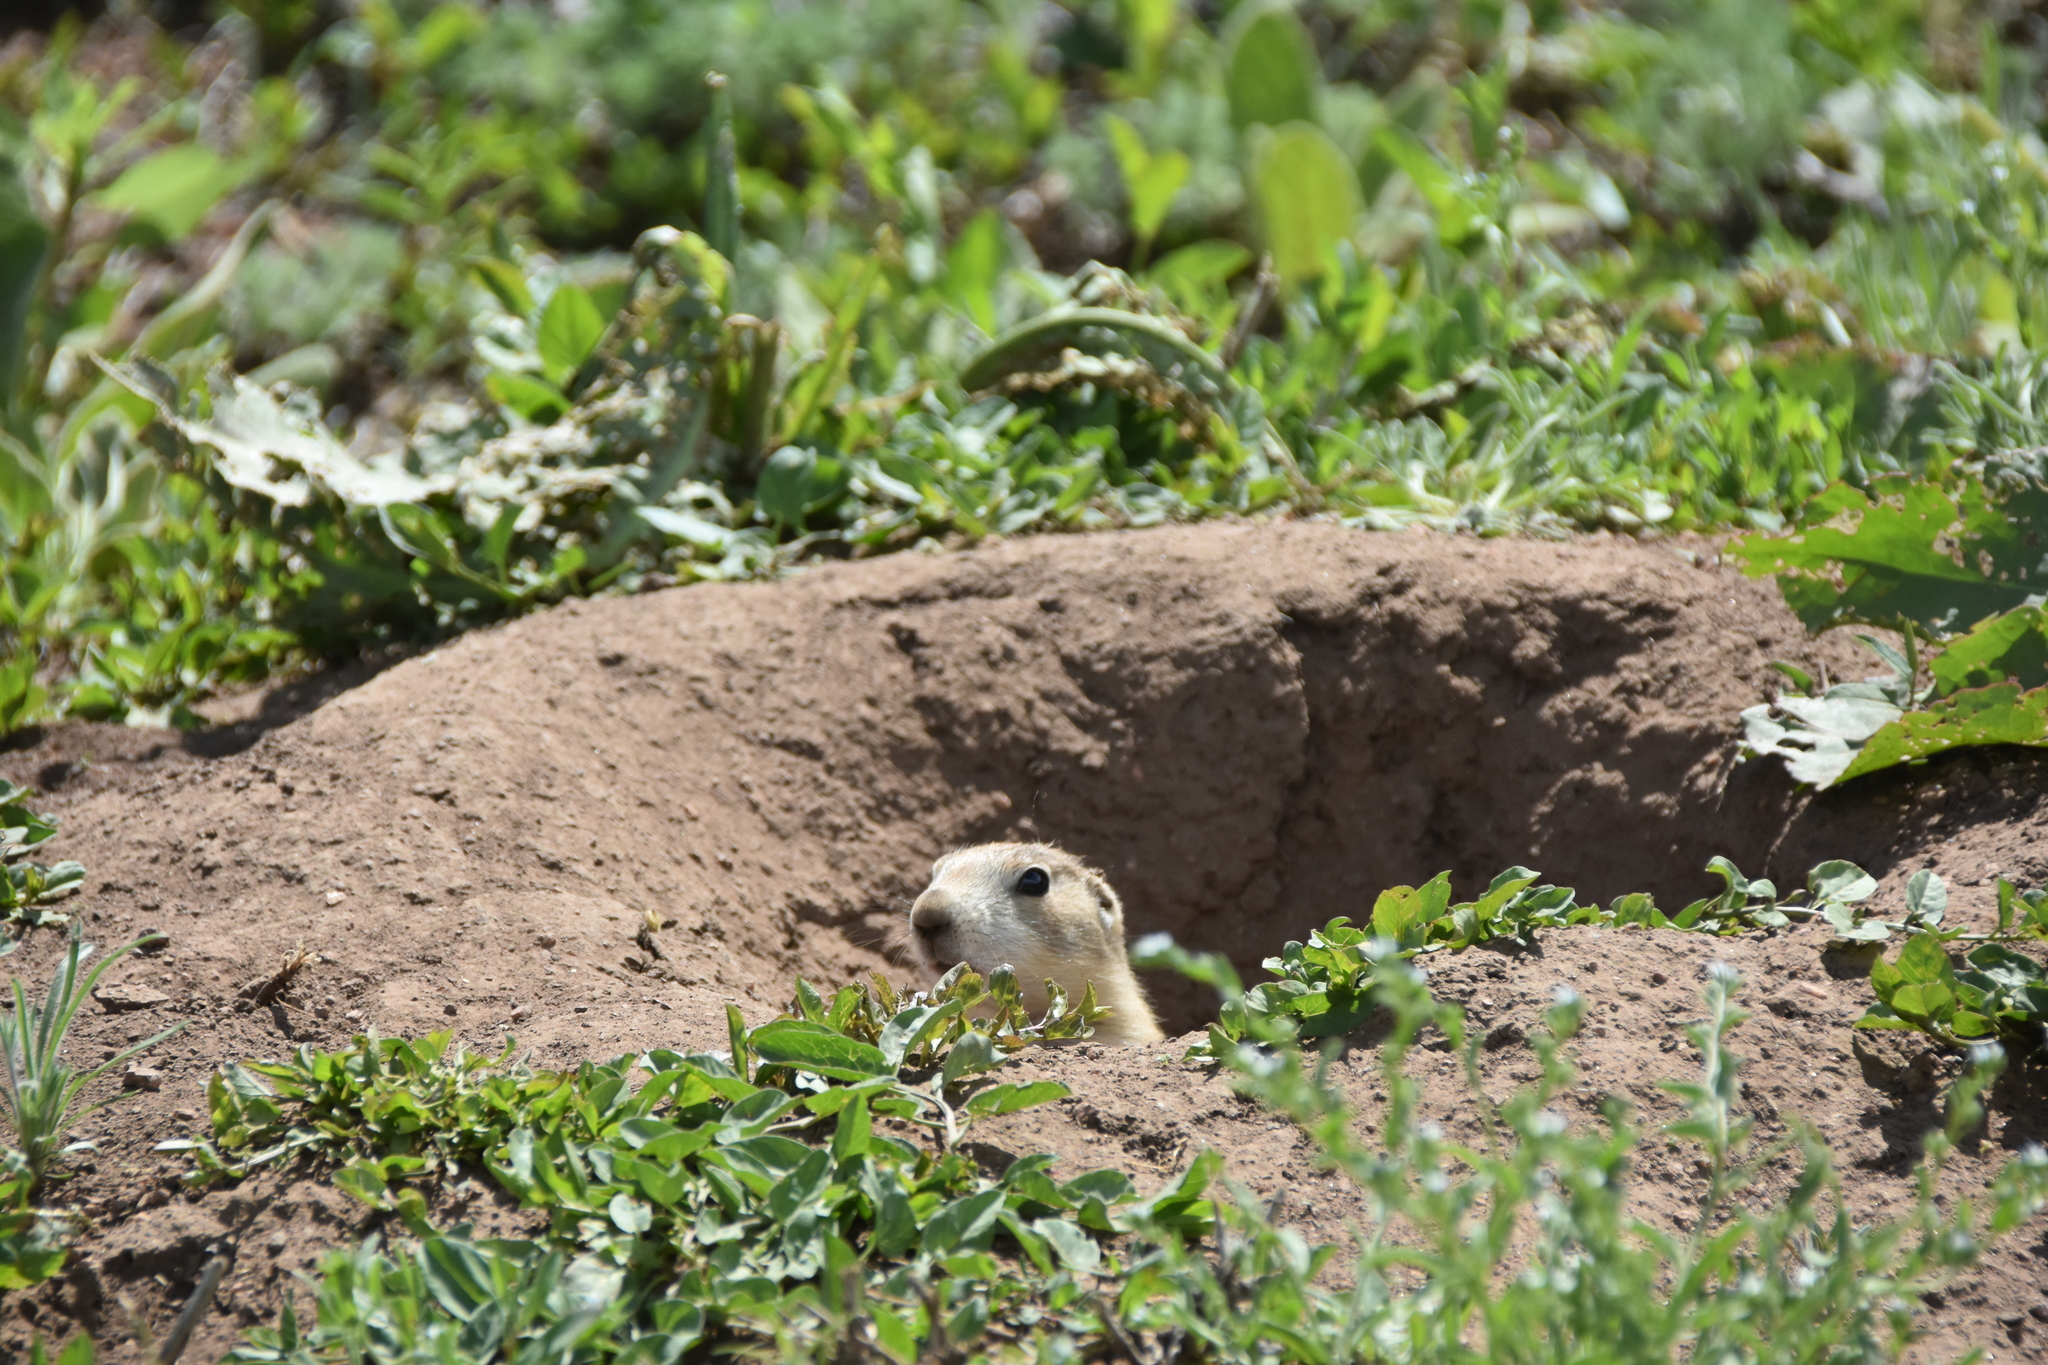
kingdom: Animalia
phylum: Chordata
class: Mammalia
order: Rodentia
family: Sciuridae
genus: Cynomys
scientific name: Cynomys ludovicianus
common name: Black-tailed prairie dog
